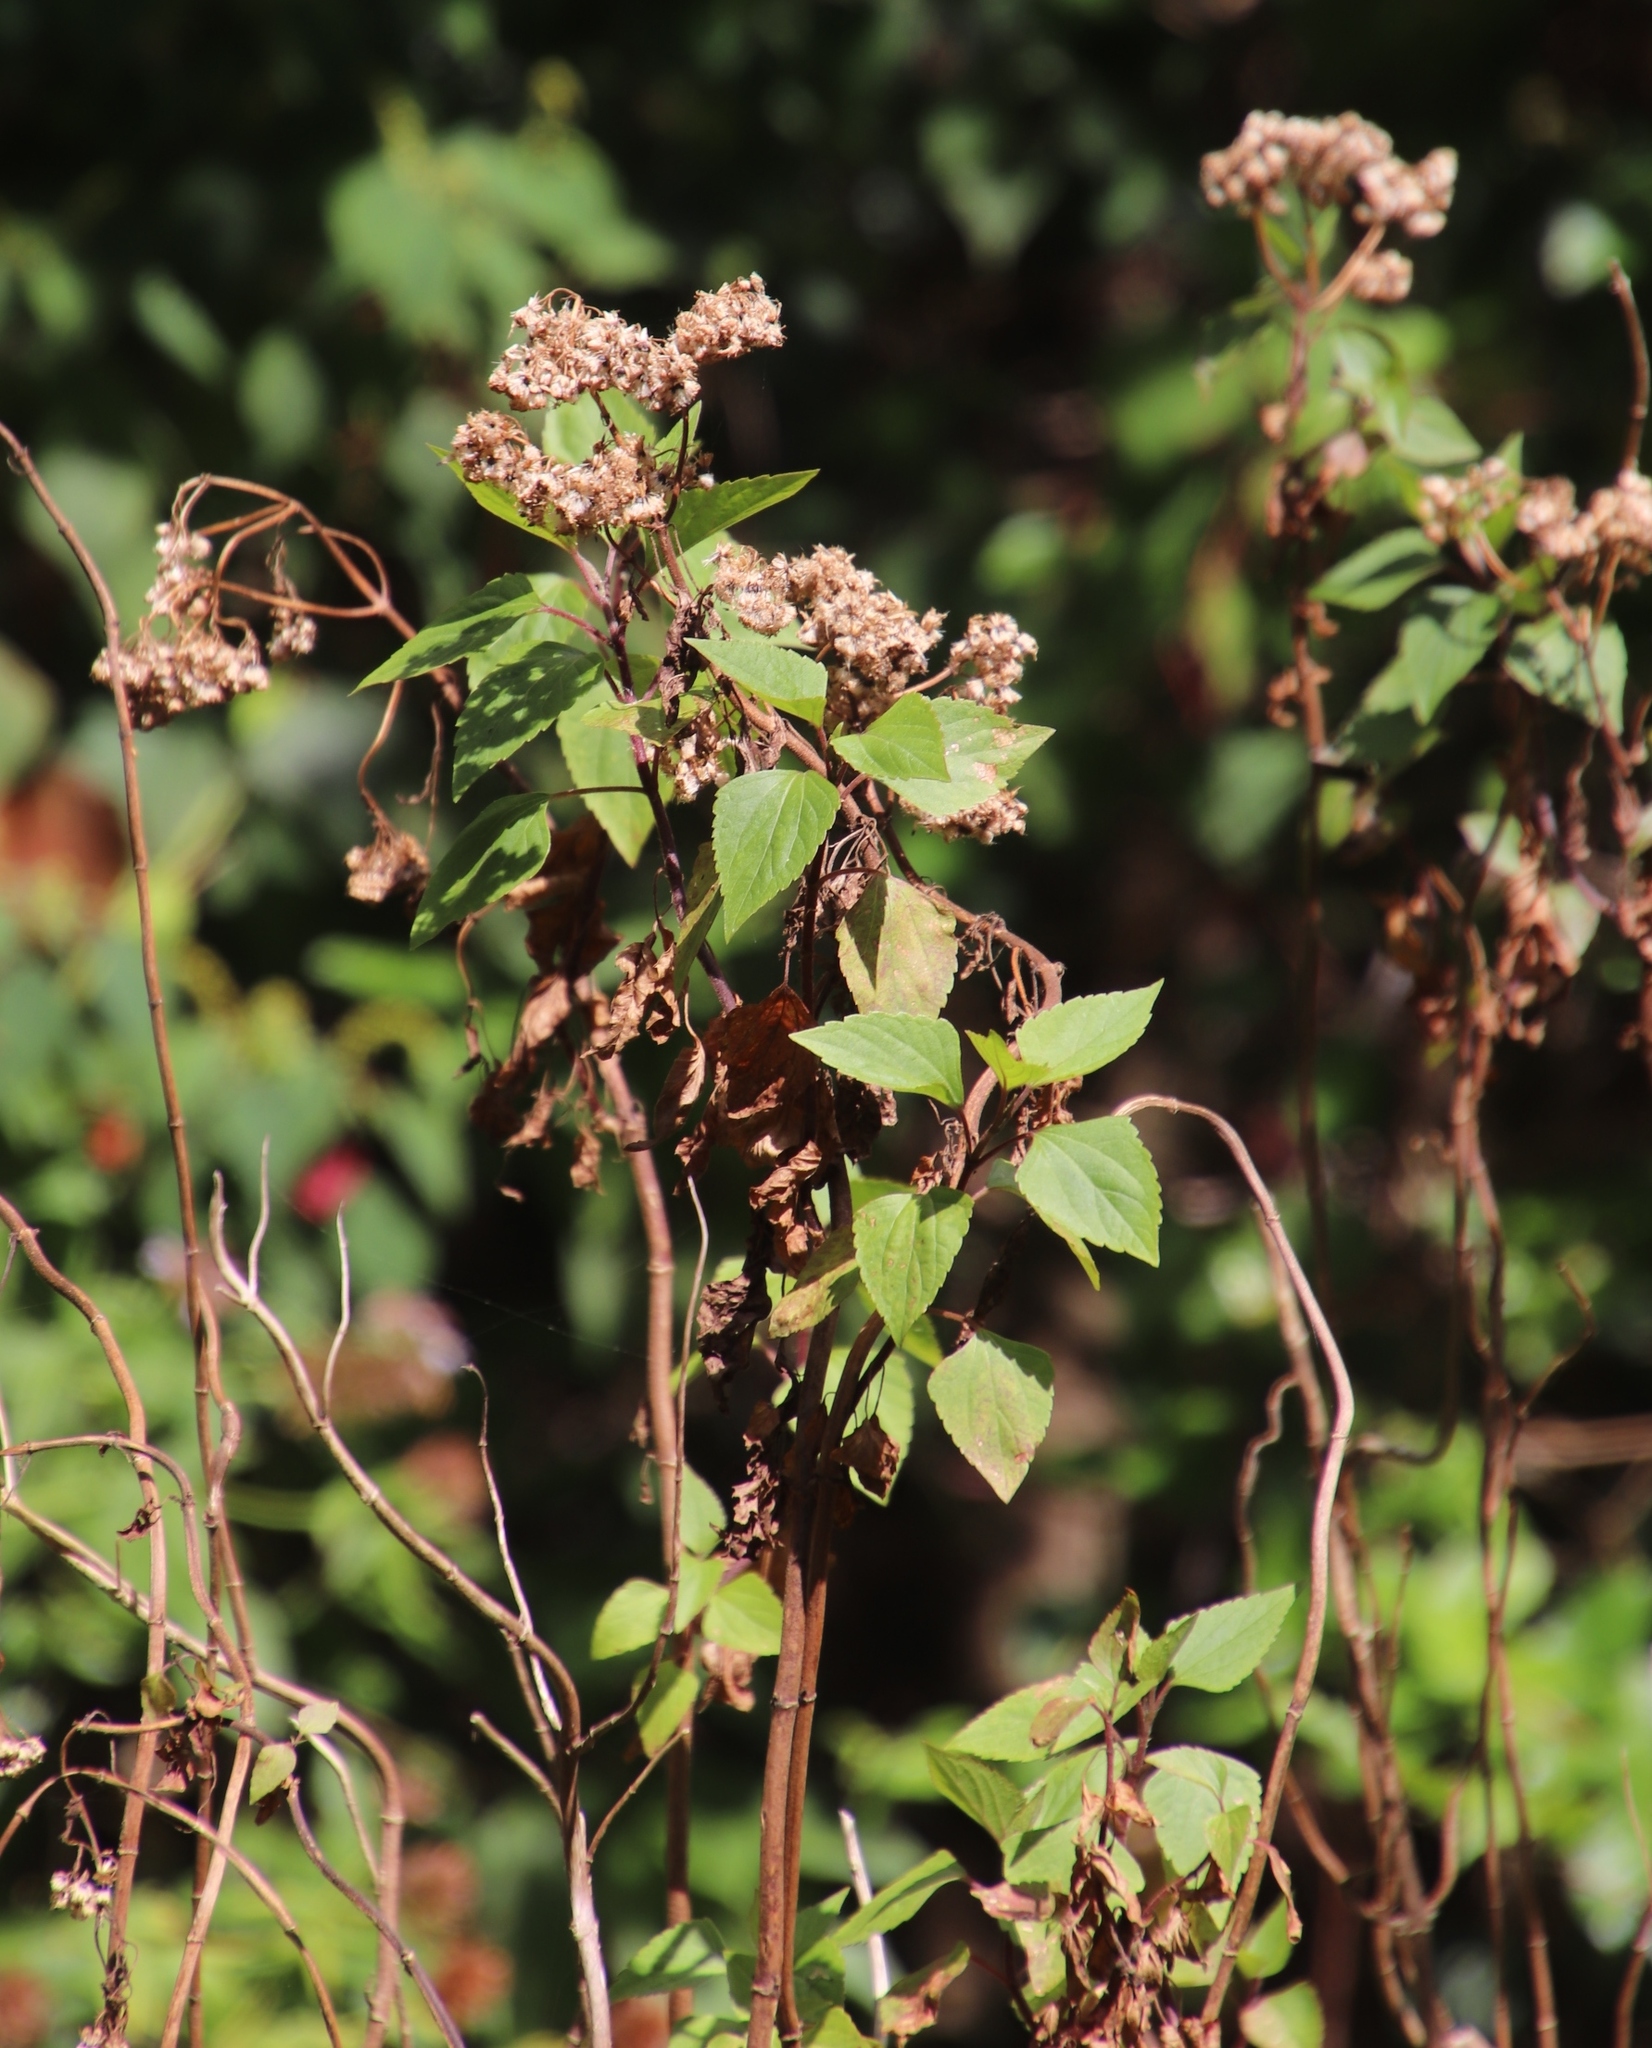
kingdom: Plantae
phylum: Tracheophyta
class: Magnoliopsida
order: Asterales
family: Asteraceae
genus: Ageratina
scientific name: Ageratina adenophora
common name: Sticky snakeroot
